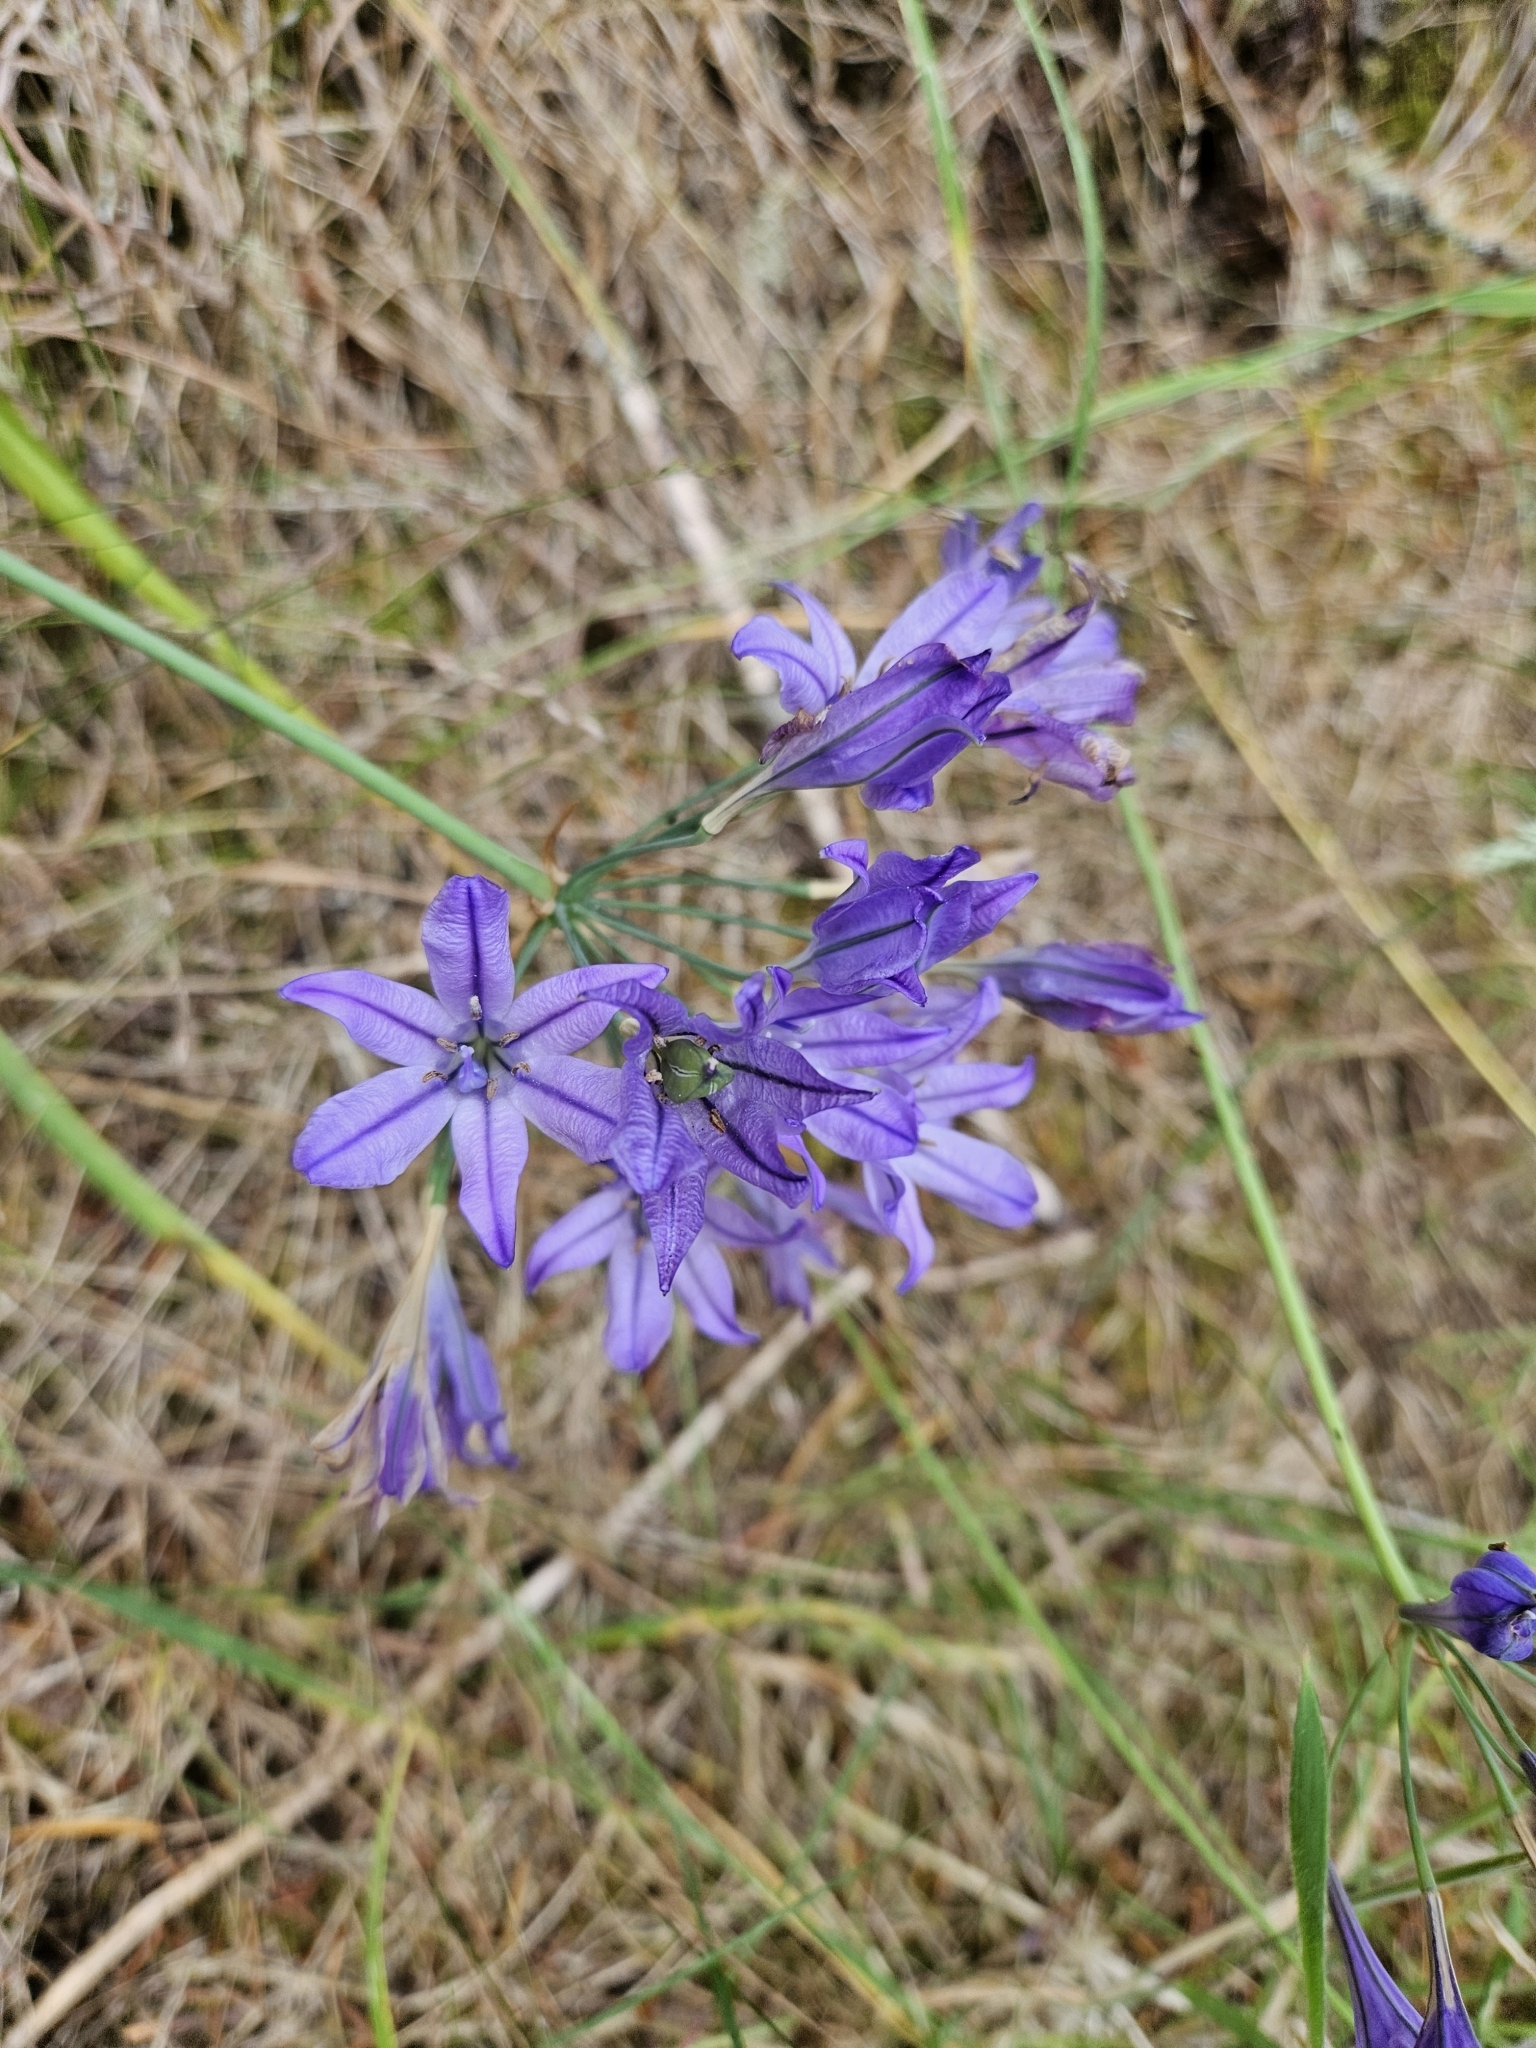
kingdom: Plantae
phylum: Tracheophyta
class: Liliopsida
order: Asparagales
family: Asparagaceae
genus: Triteleia
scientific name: Triteleia laxa
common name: Triplet-lily
